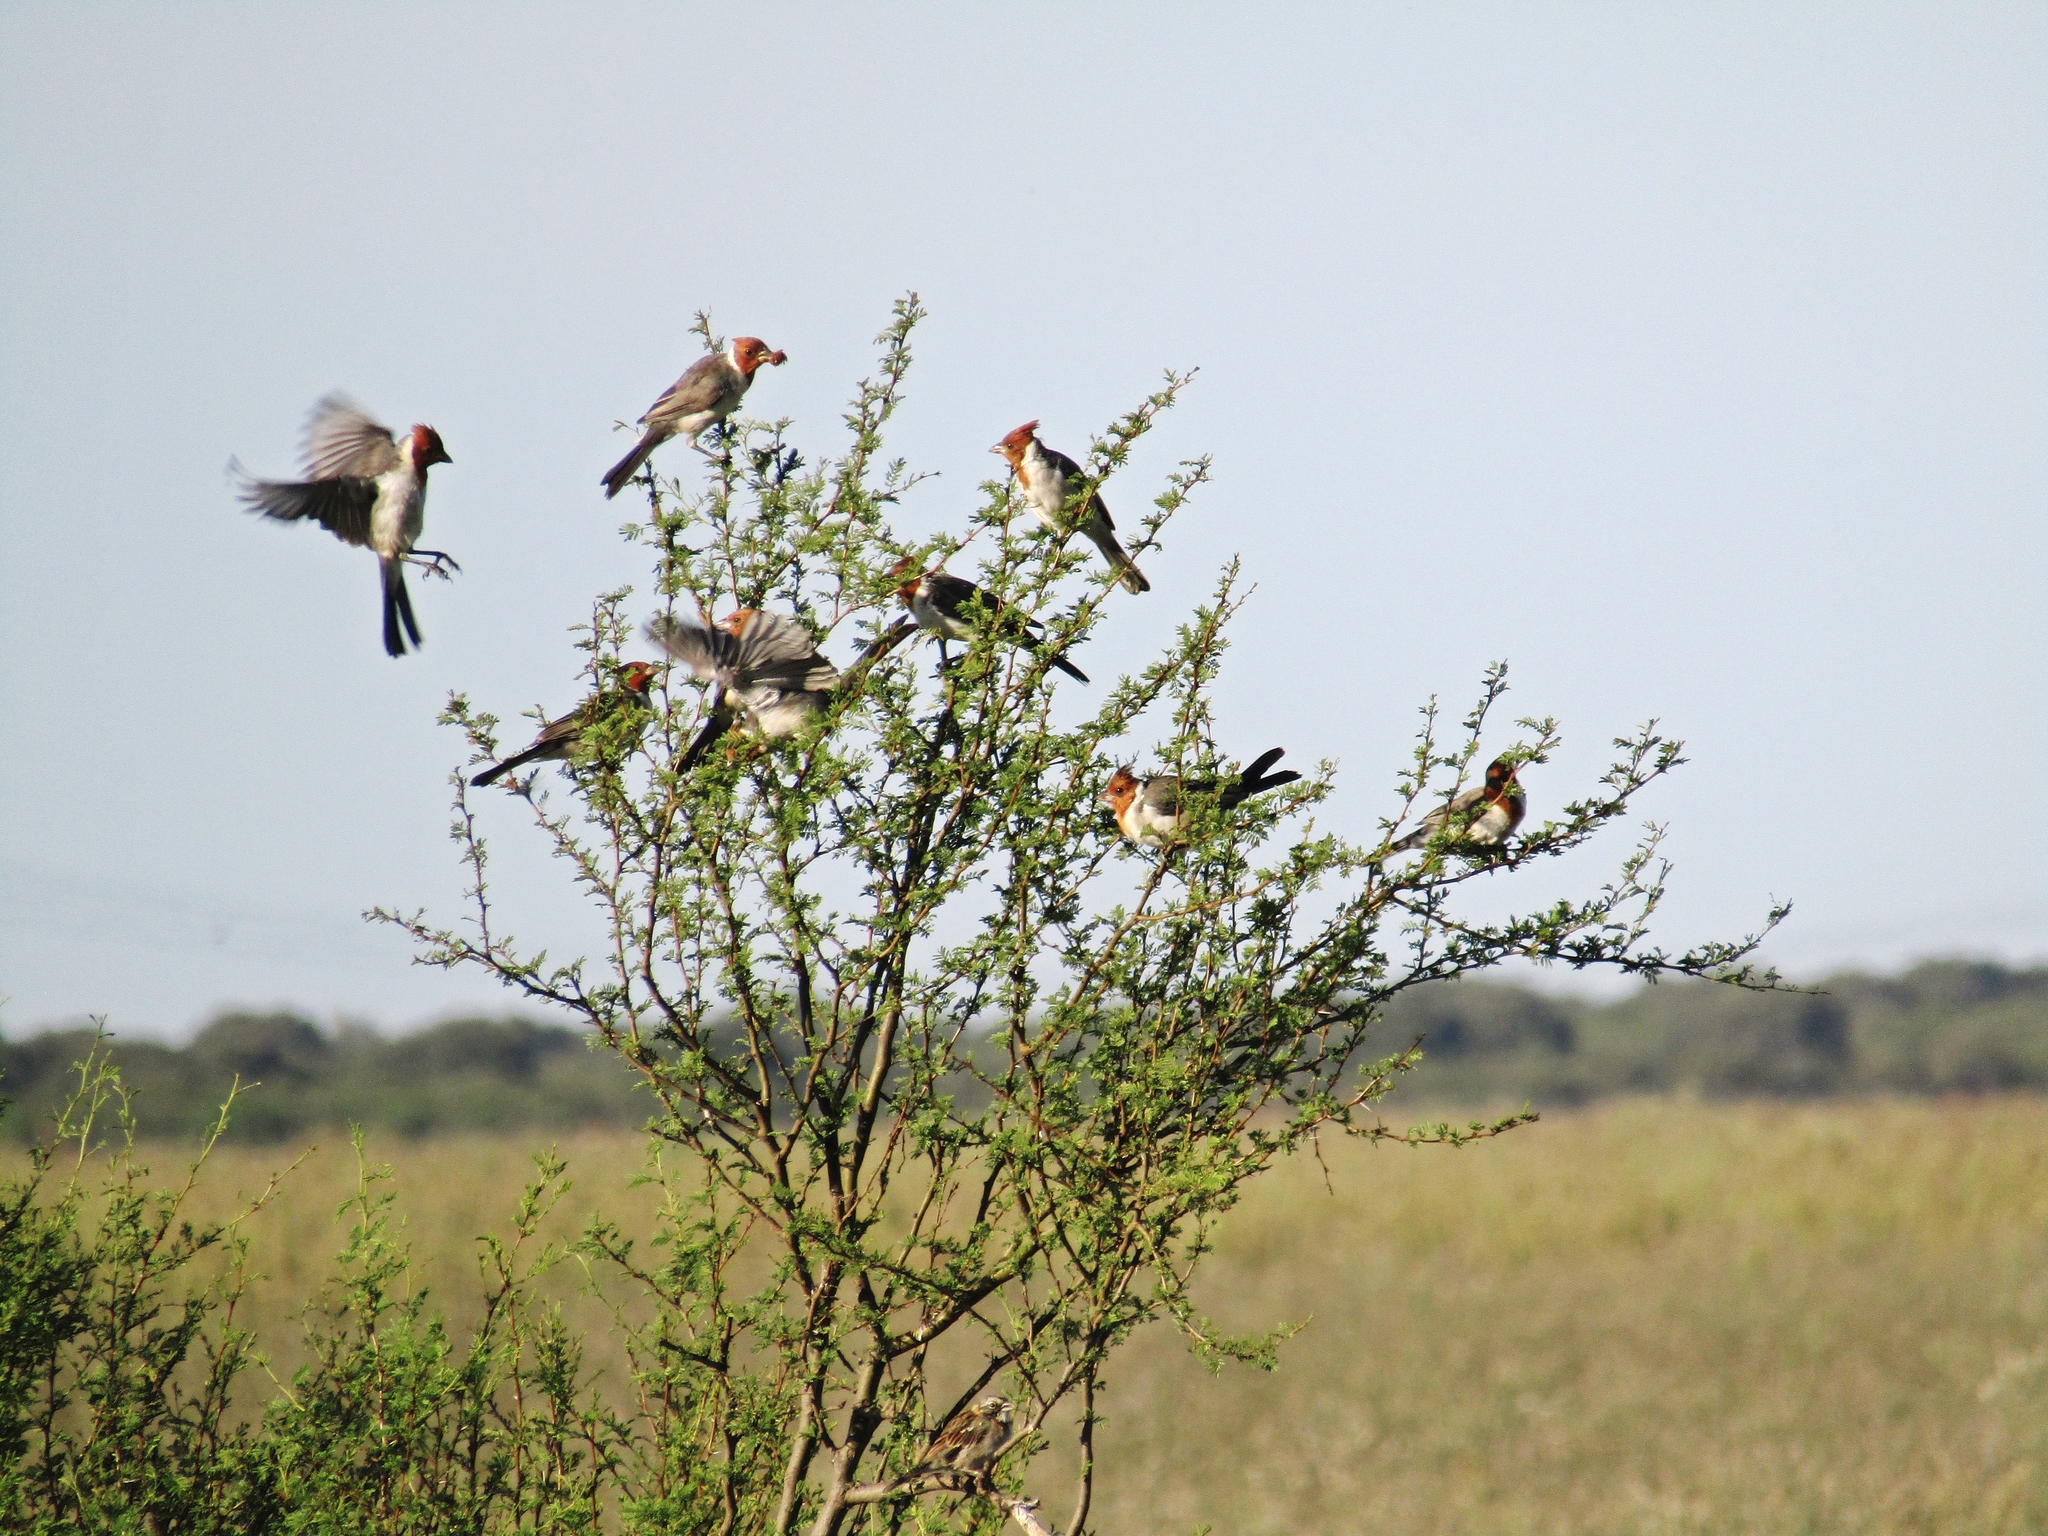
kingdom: Animalia
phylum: Chordata
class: Aves
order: Passeriformes
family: Thraupidae
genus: Paroaria
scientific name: Paroaria coronata
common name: Red-crested cardinal
